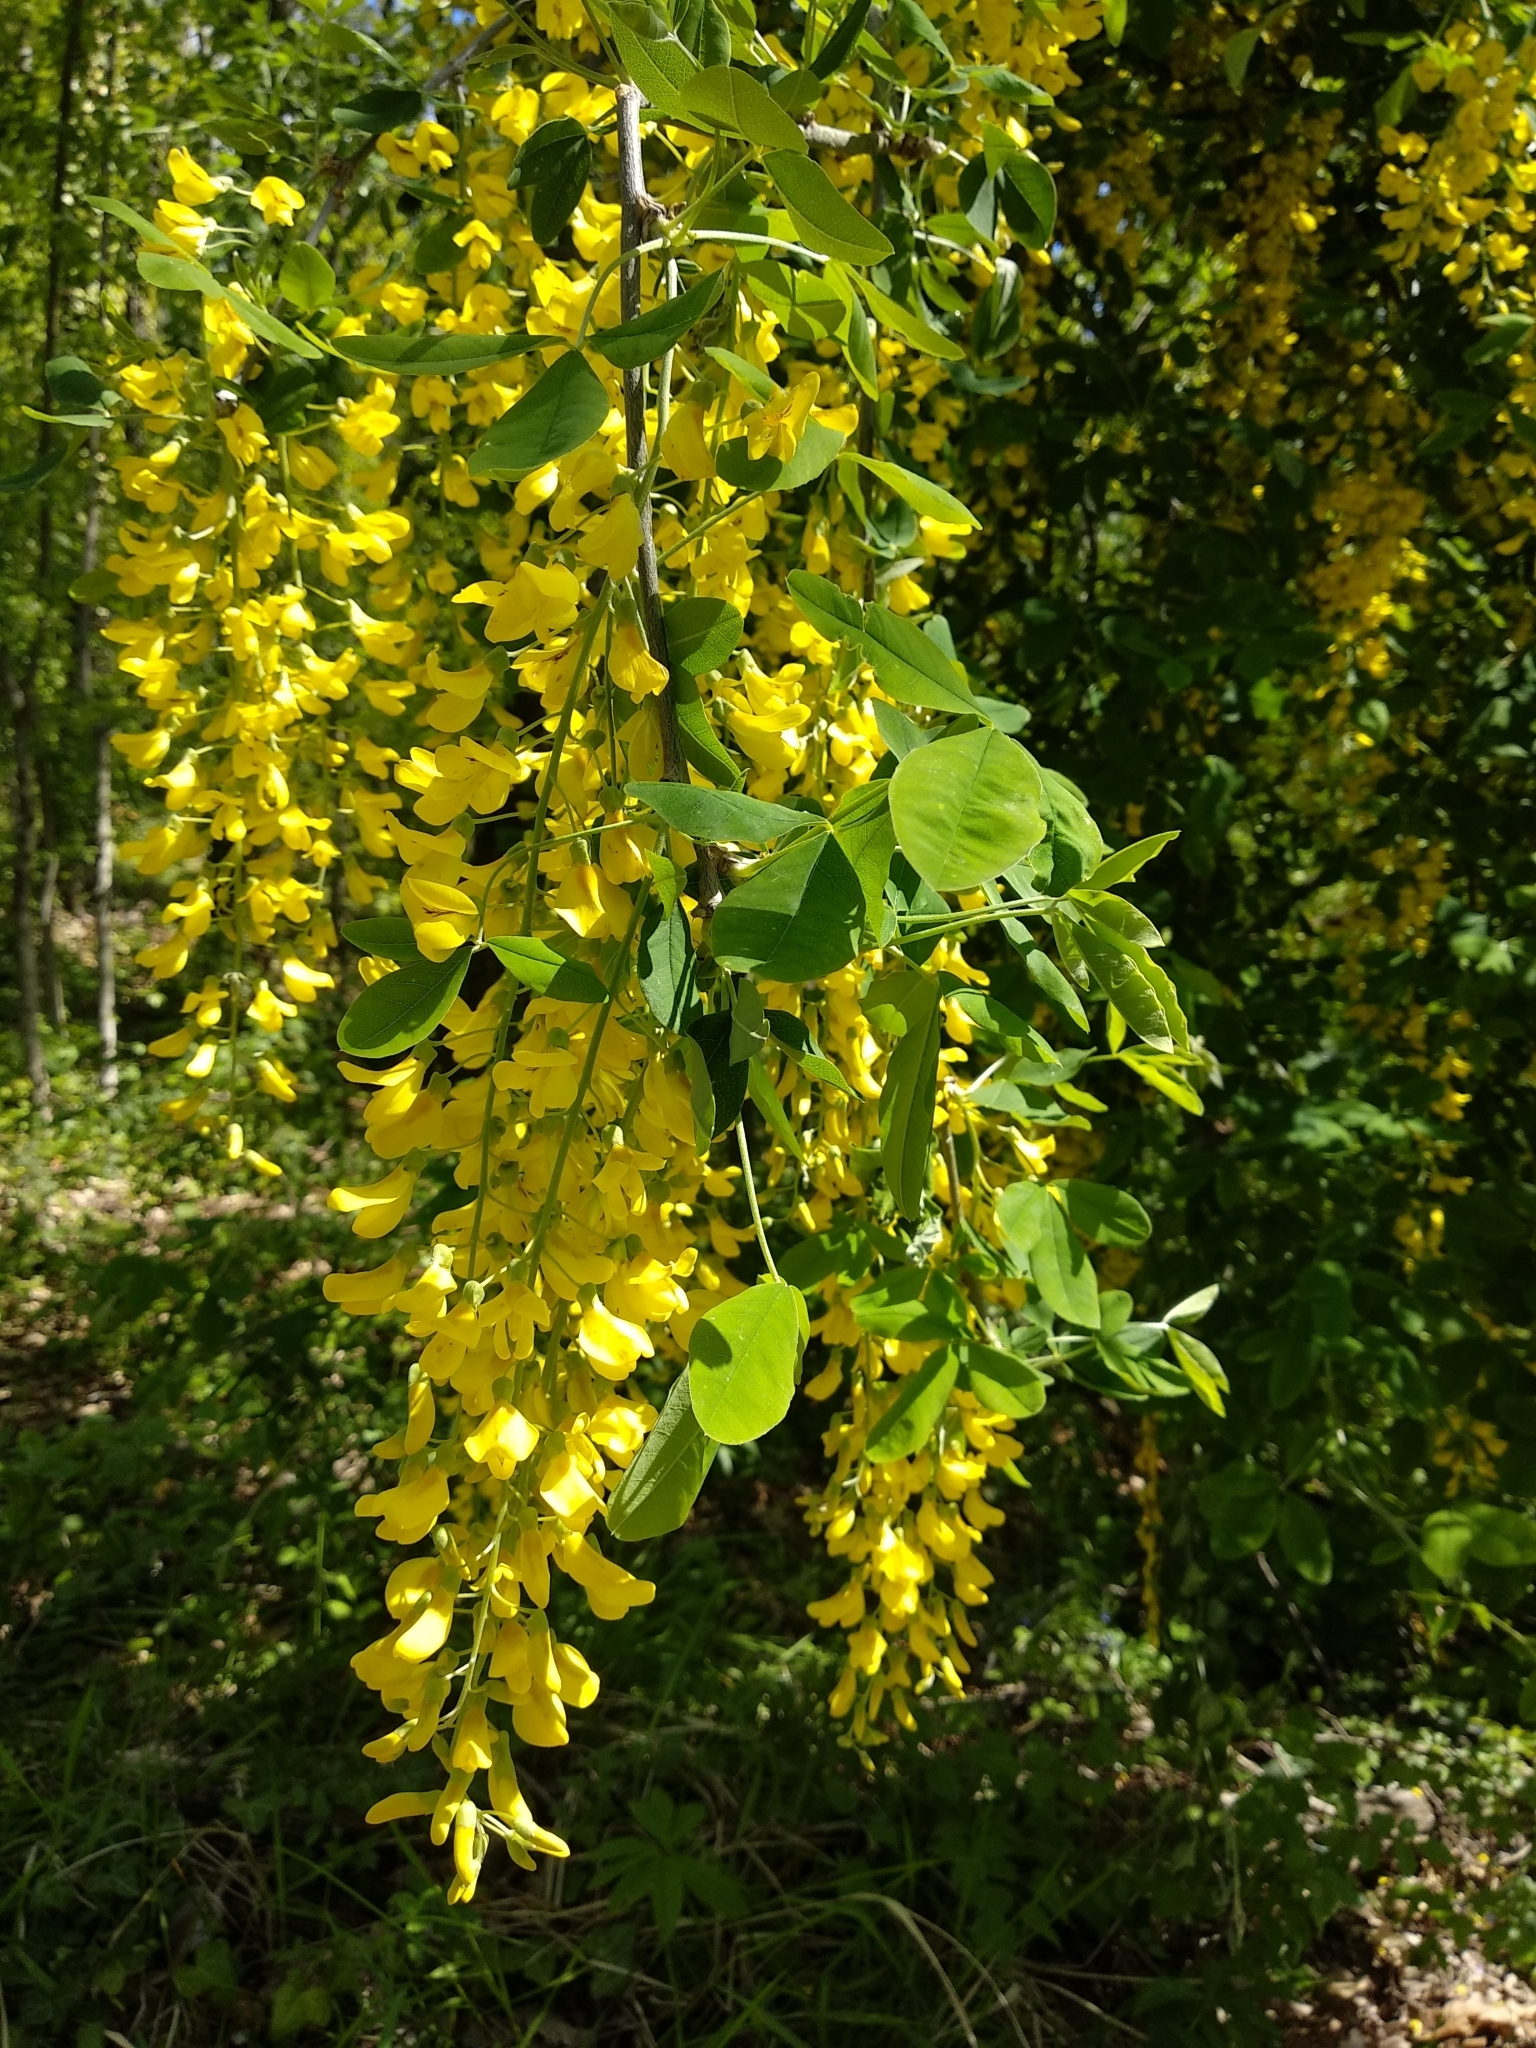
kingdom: Plantae
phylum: Tracheophyta
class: Magnoliopsida
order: Fabales
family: Fabaceae
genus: Laburnum
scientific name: Laburnum anagyroides
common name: Laburnum
